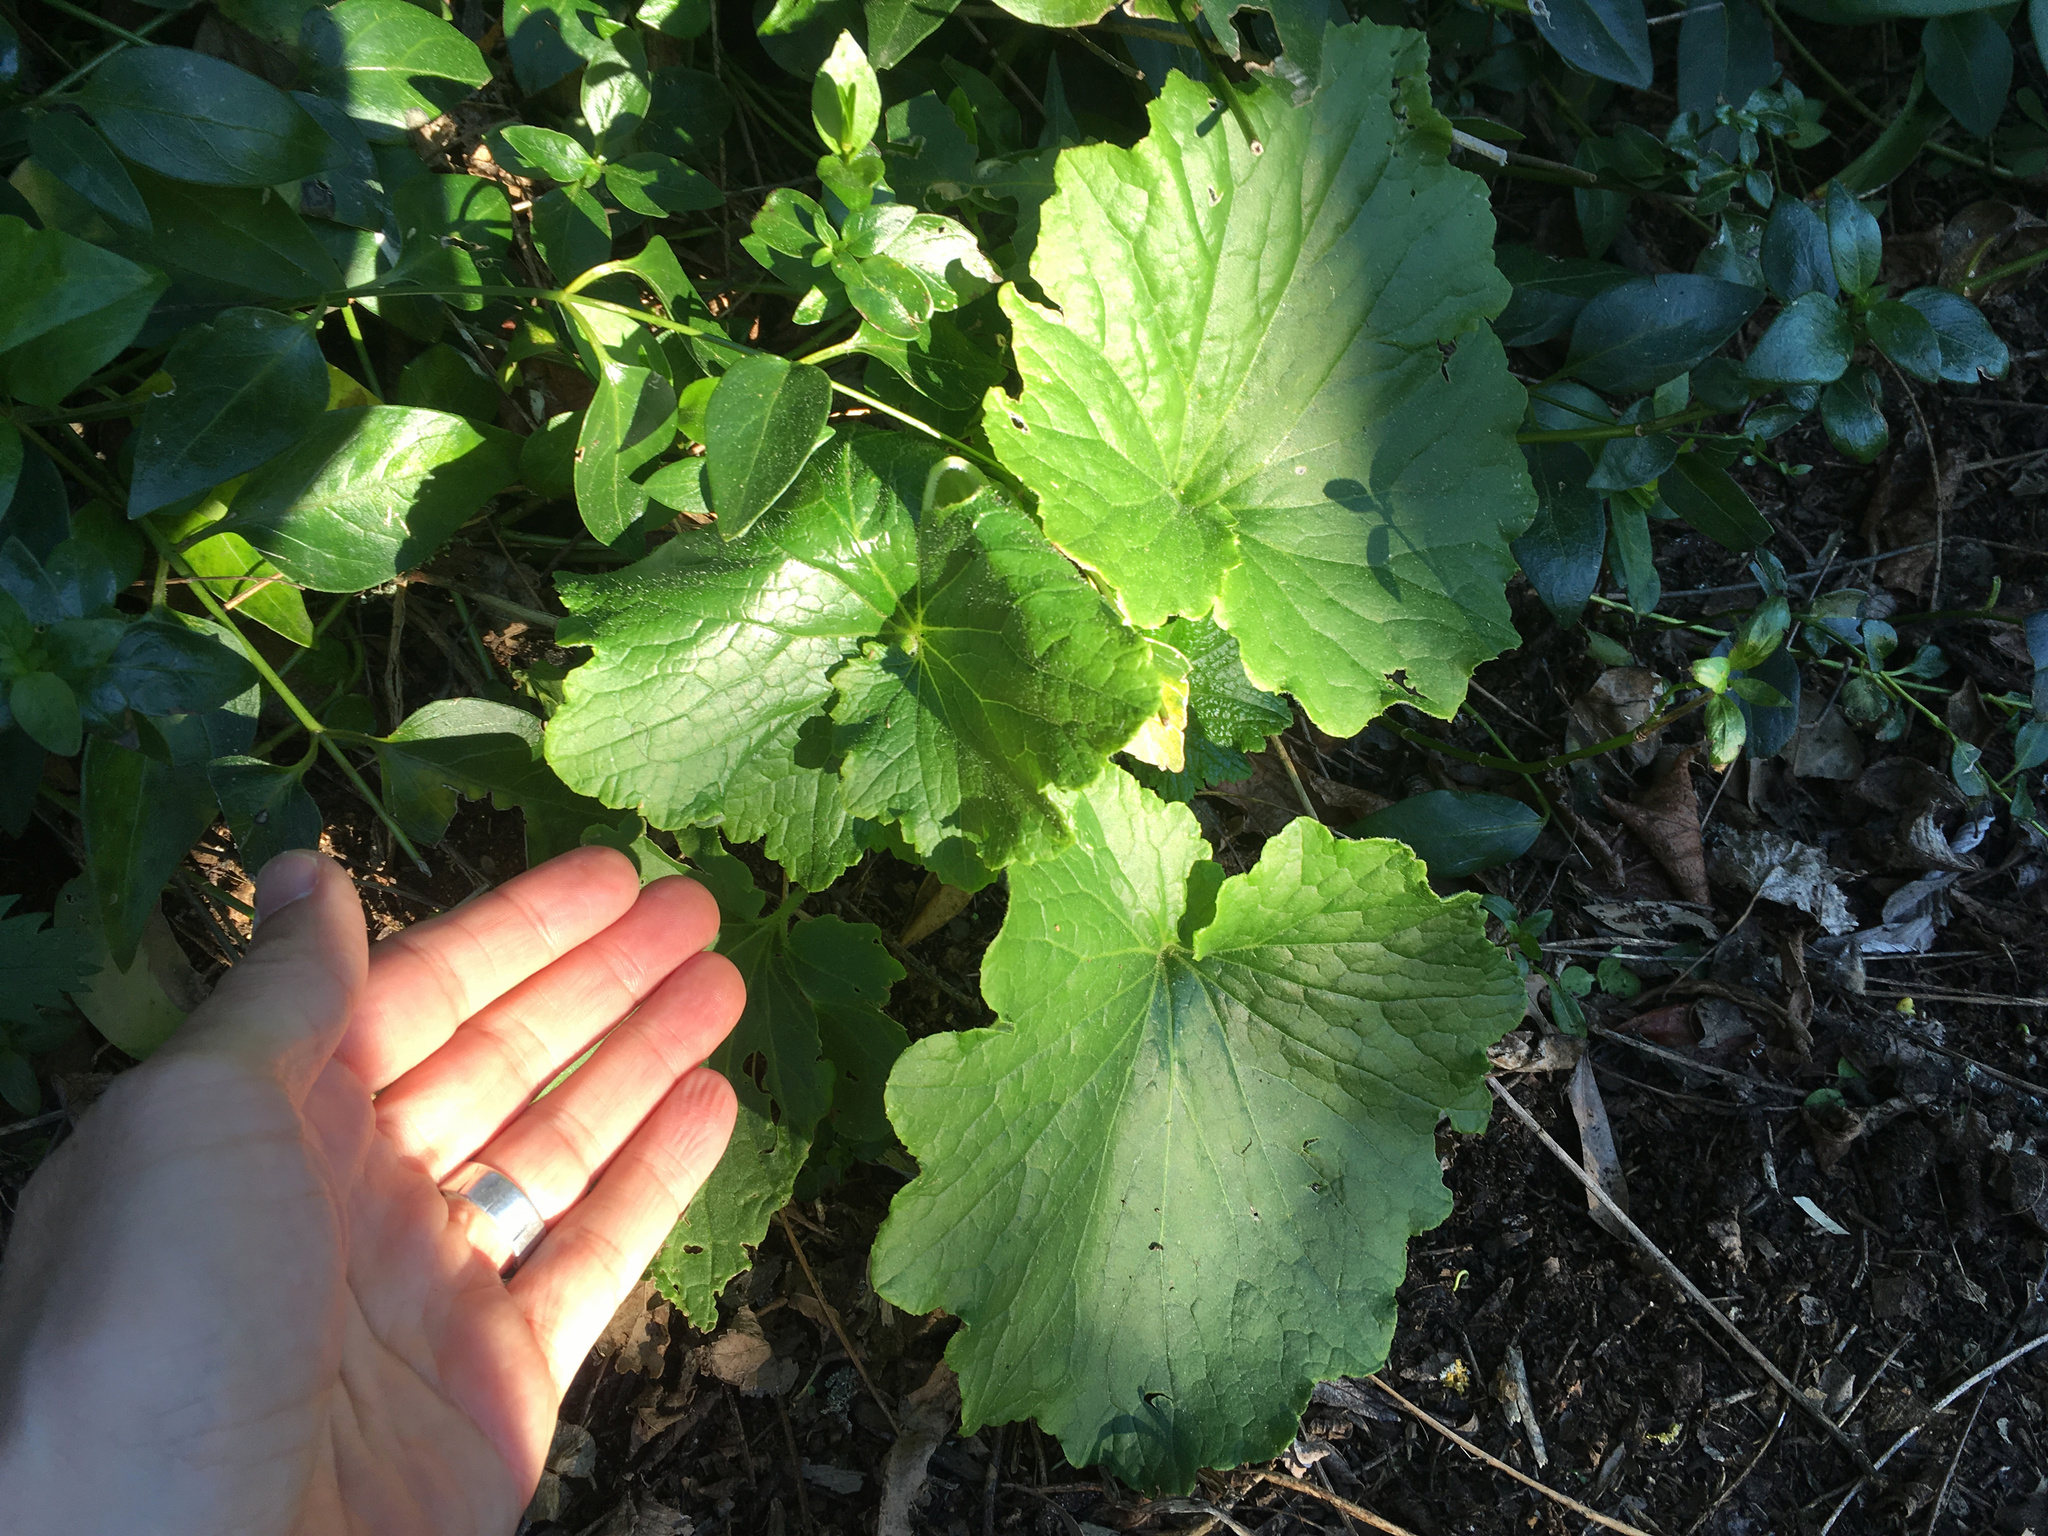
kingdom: Plantae
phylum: Tracheophyta
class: Magnoliopsida
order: Asterales
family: Asteraceae
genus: Pericallis
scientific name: Pericallis hybrida
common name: Cineraria
